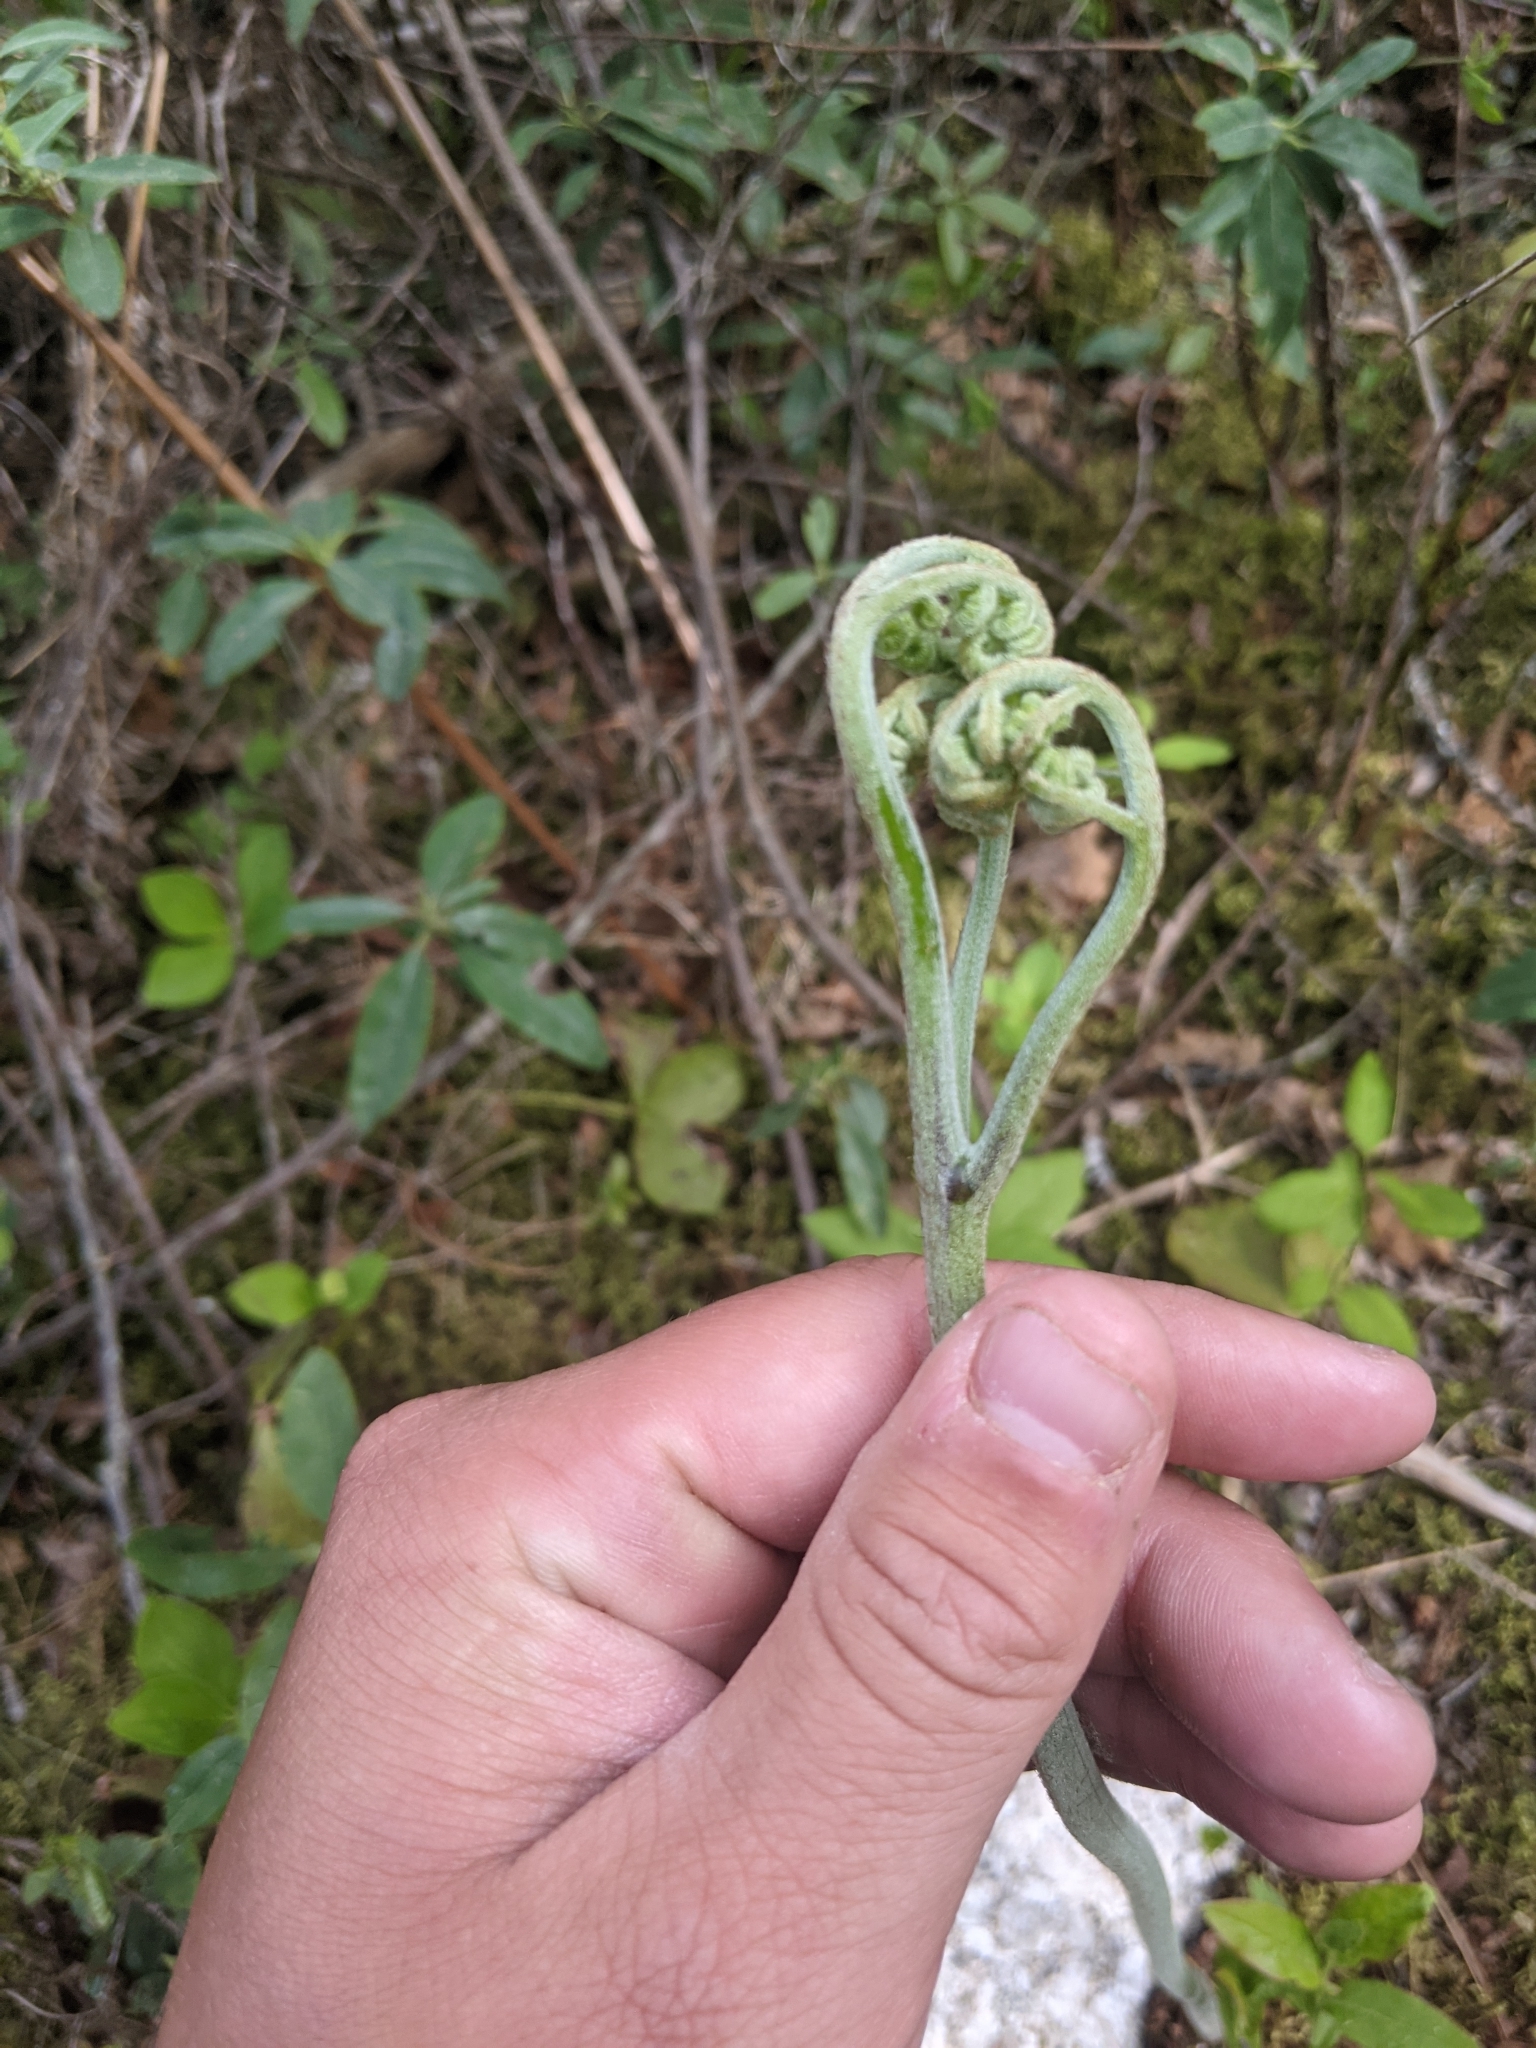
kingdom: Plantae
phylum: Tracheophyta
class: Polypodiopsida
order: Polypodiales
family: Dennstaedtiaceae
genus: Pteridium
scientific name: Pteridium aquilinum
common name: Bracken
